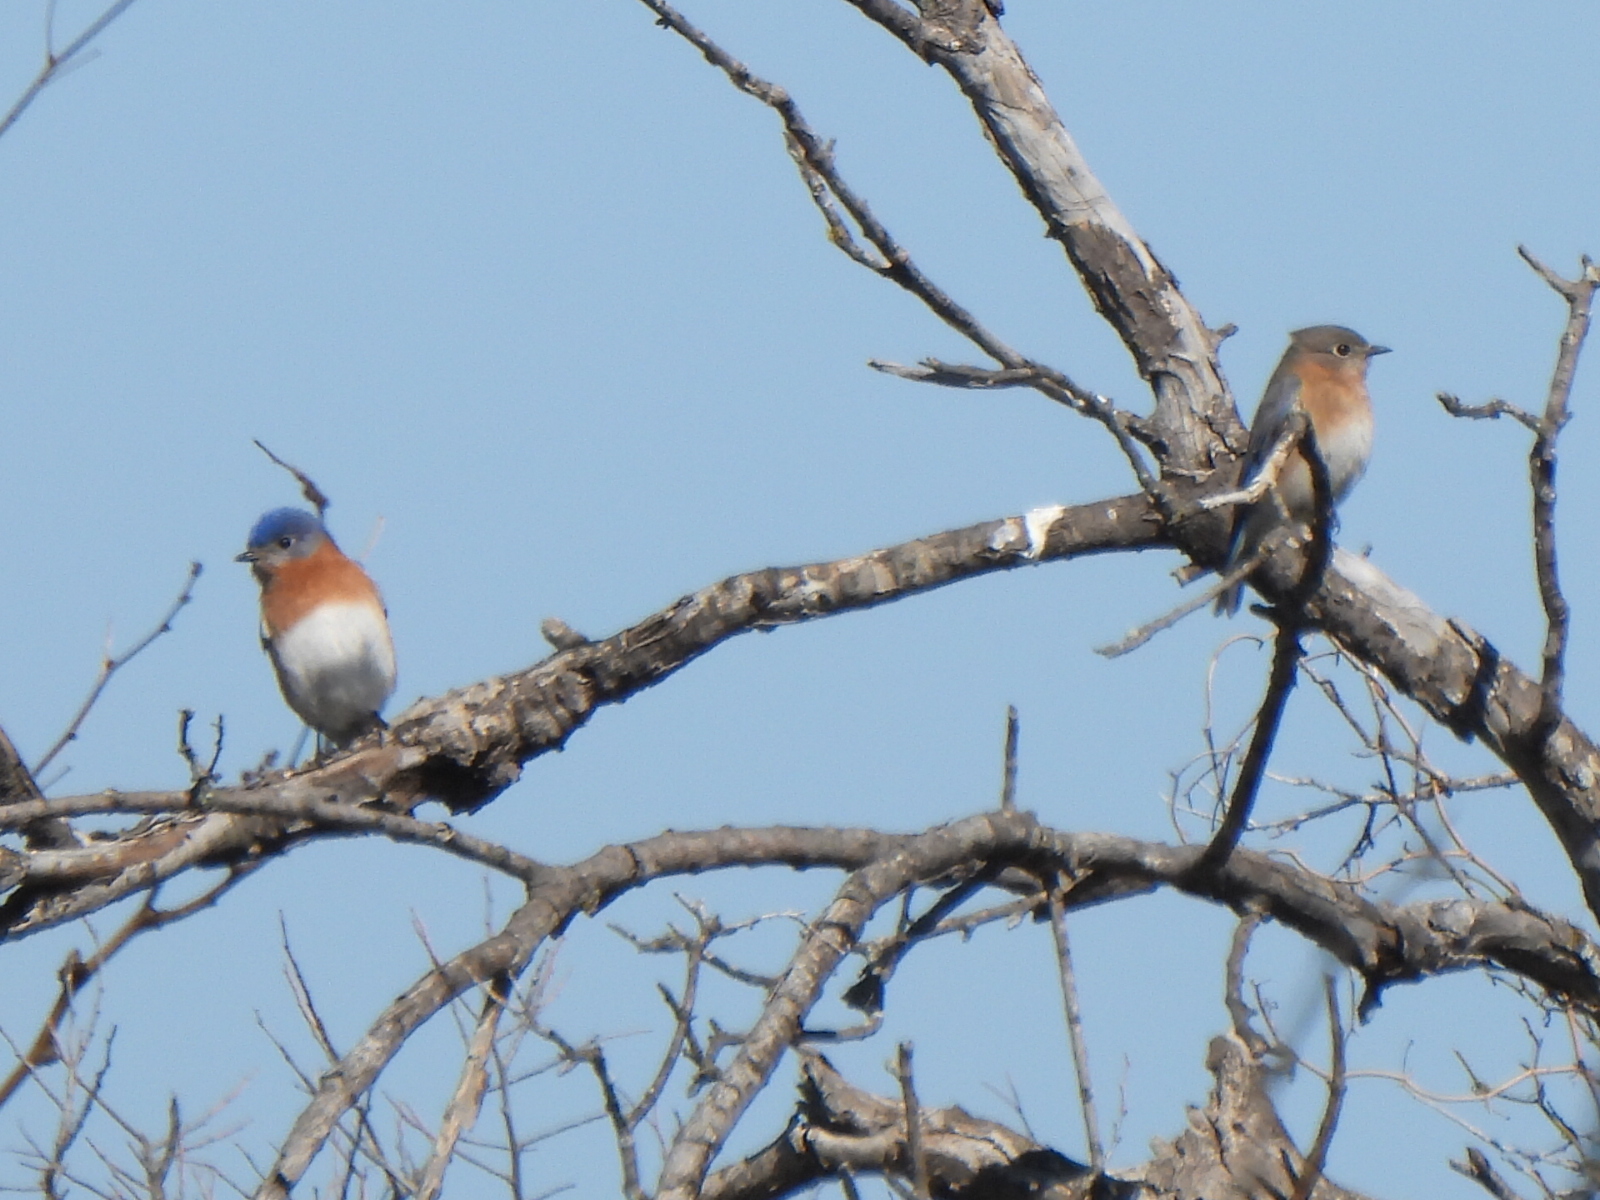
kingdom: Animalia
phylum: Chordata
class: Aves
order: Passeriformes
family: Turdidae
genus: Sialia
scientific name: Sialia sialis
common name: Eastern bluebird
